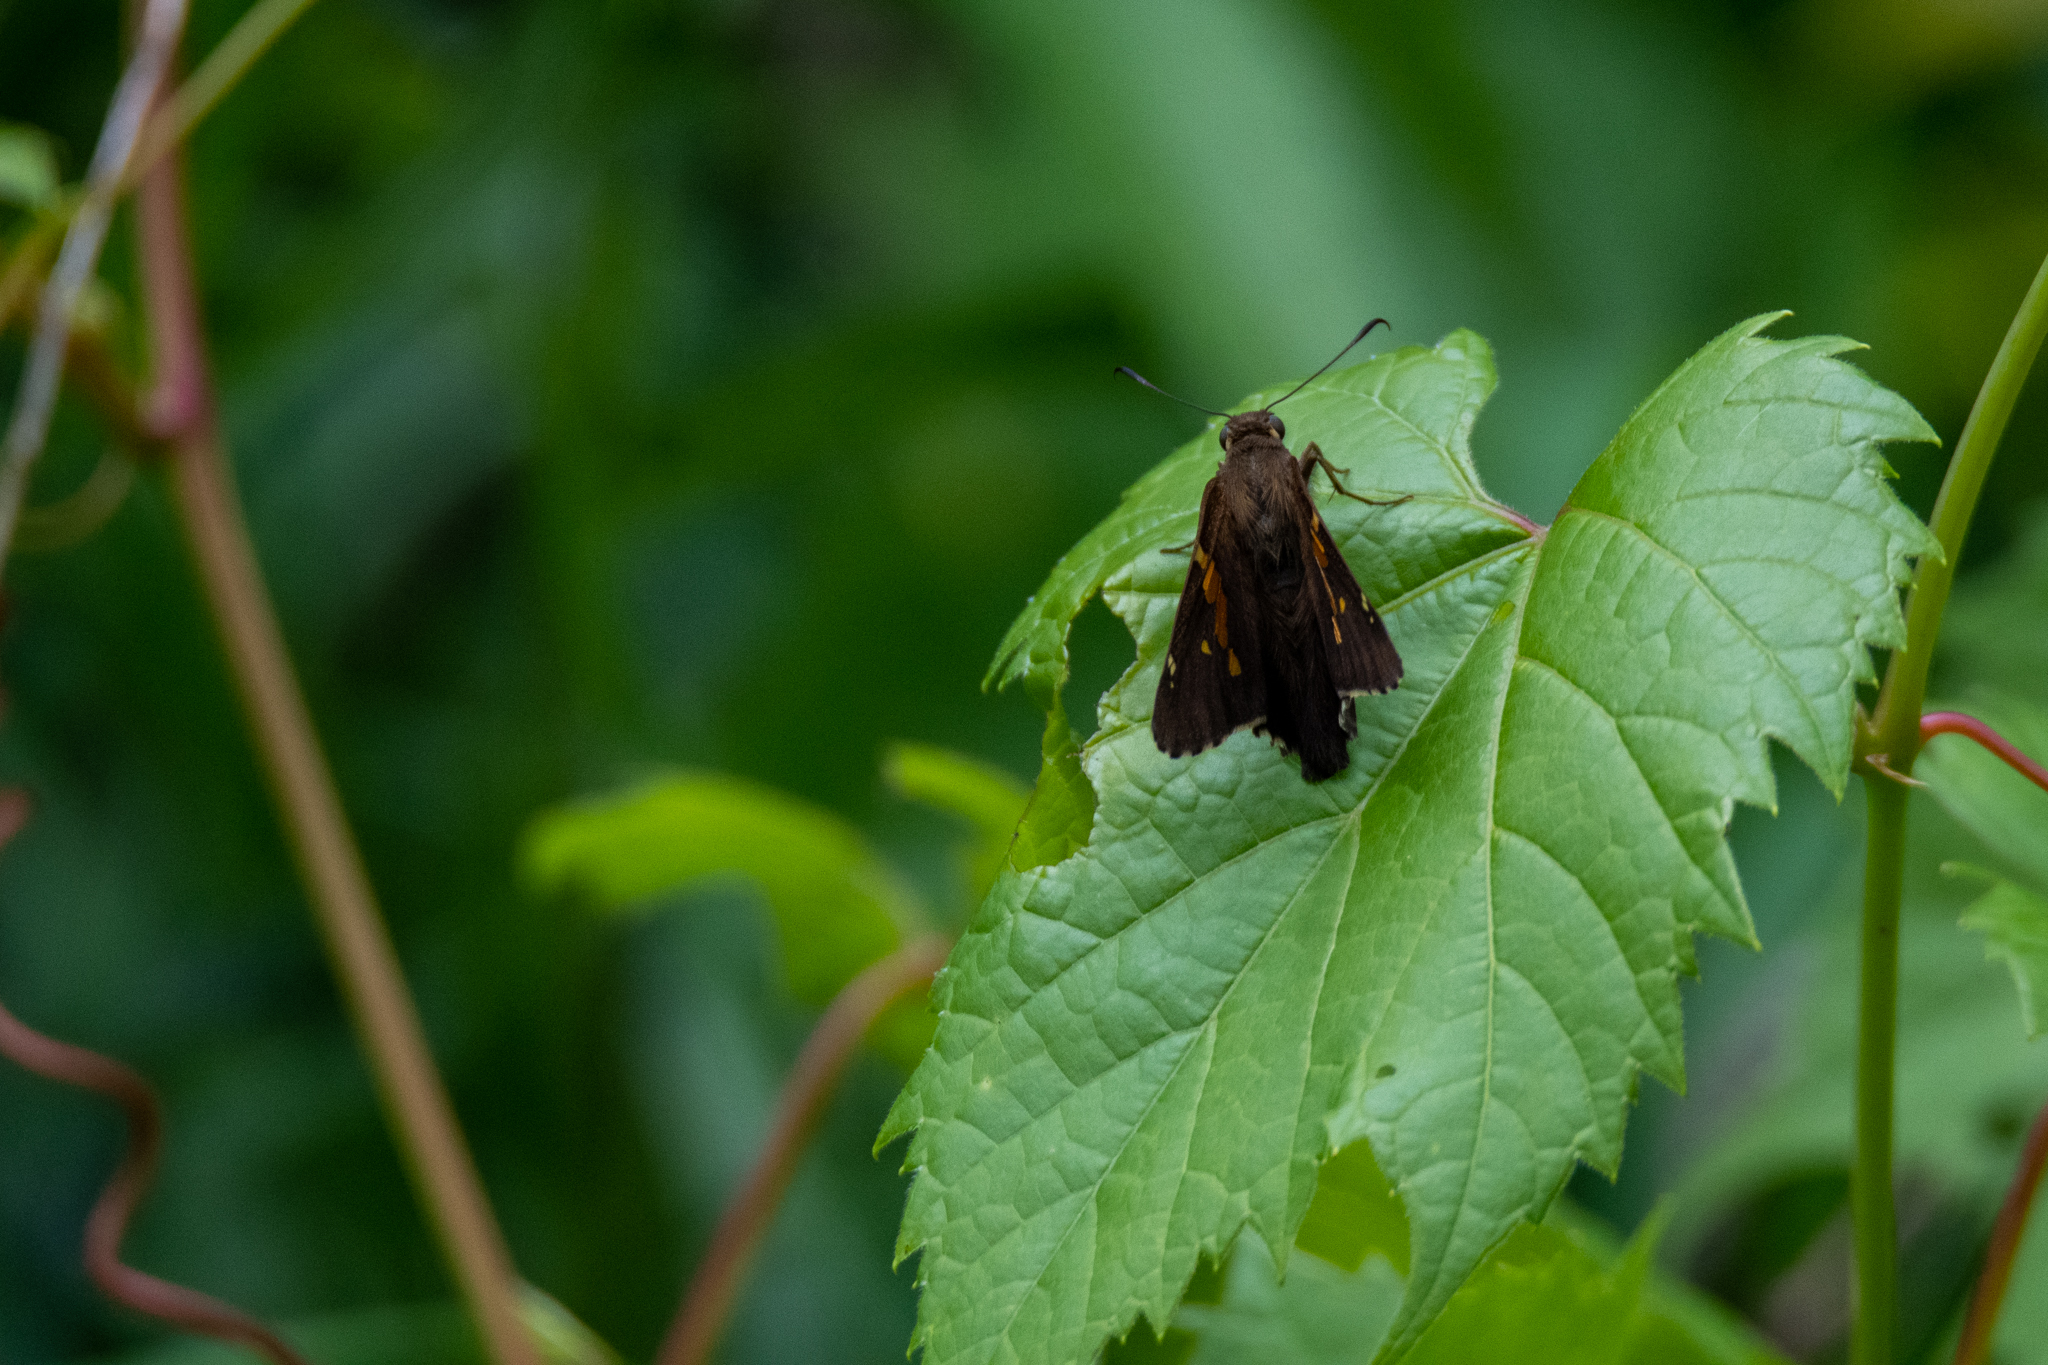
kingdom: Animalia
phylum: Arthropoda
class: Insecta
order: Lepidoptera
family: Hesperiidae
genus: Epargyreus
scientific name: Epargyreus clarus
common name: Silver-spotted skipper
